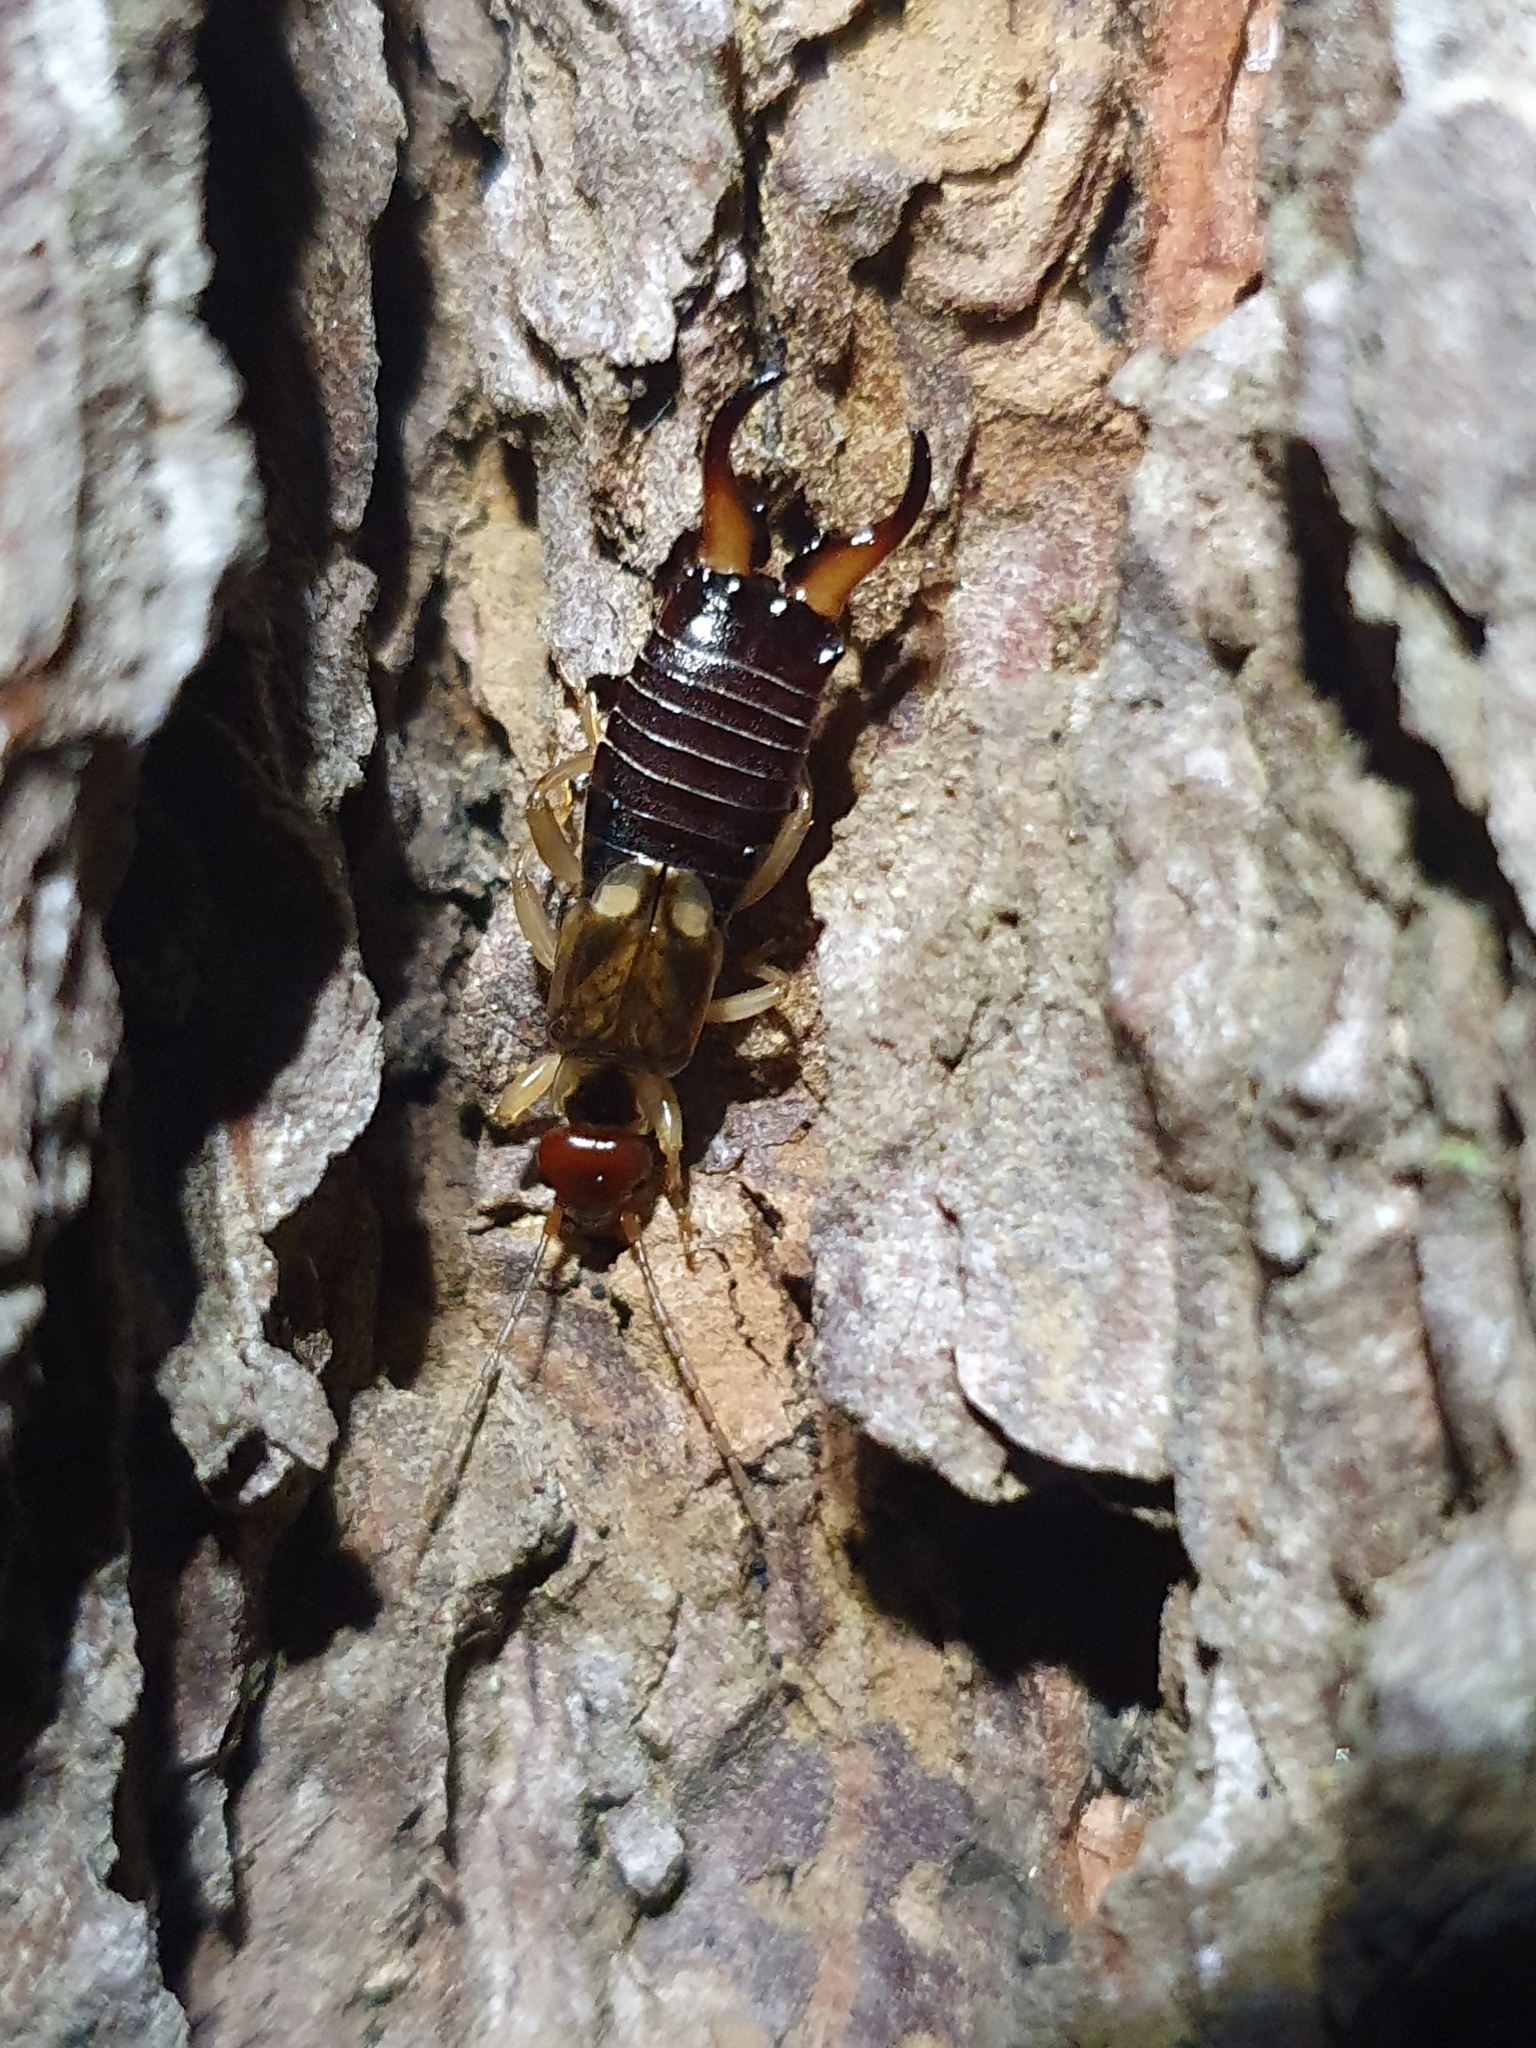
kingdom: Animalia
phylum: Arthropoda
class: Insecta
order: Dermaptera
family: Forficulidae
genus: Forficula
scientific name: Forficula
